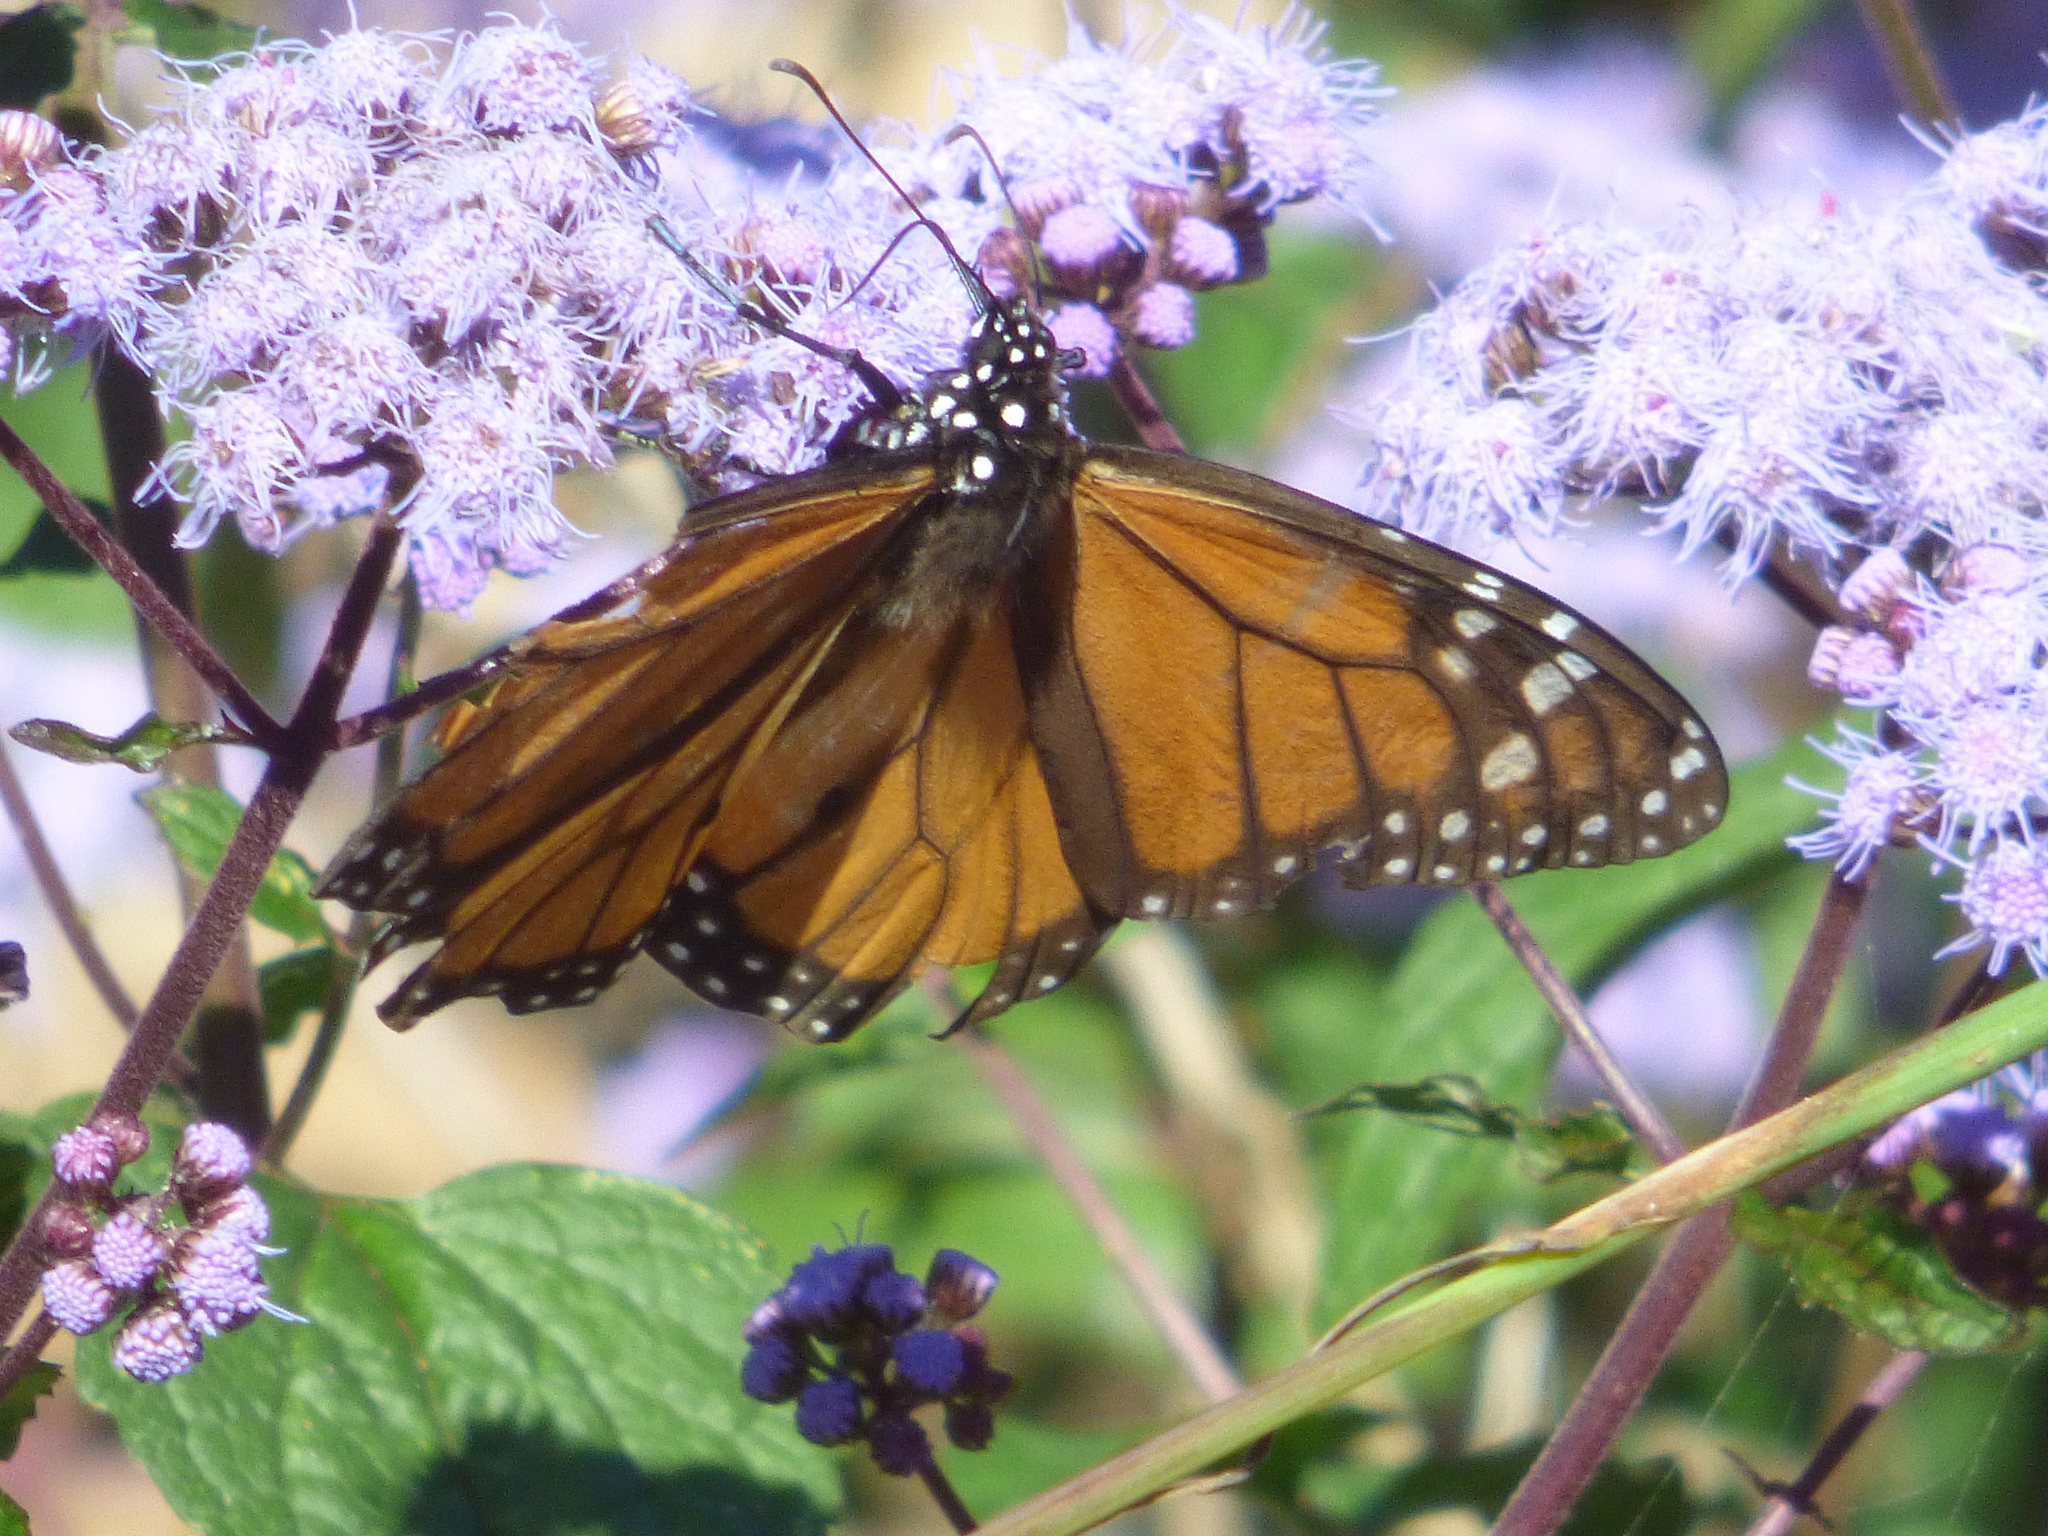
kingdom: Animalia
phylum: Arthropoda
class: Insecta
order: Lepidoptera
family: Nymphalidae
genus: Danaus
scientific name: Danaus plexippus
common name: Monarch
